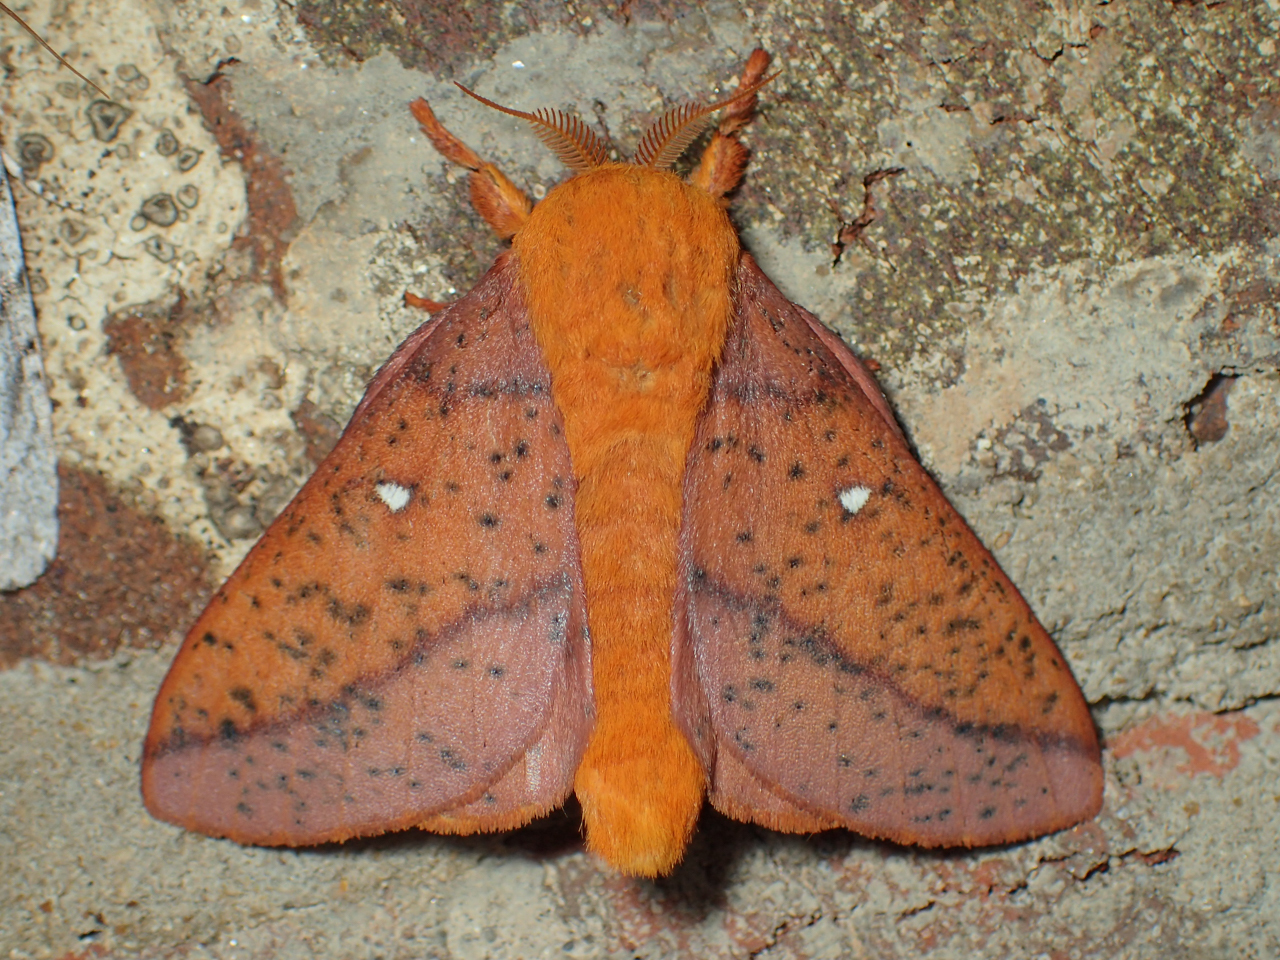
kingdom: Animalia
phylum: Arthropoda
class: Insecta
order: Lepidoptera
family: Saturniidae
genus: Anisota
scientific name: Anisota stigma
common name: Spiny oakworm moth
